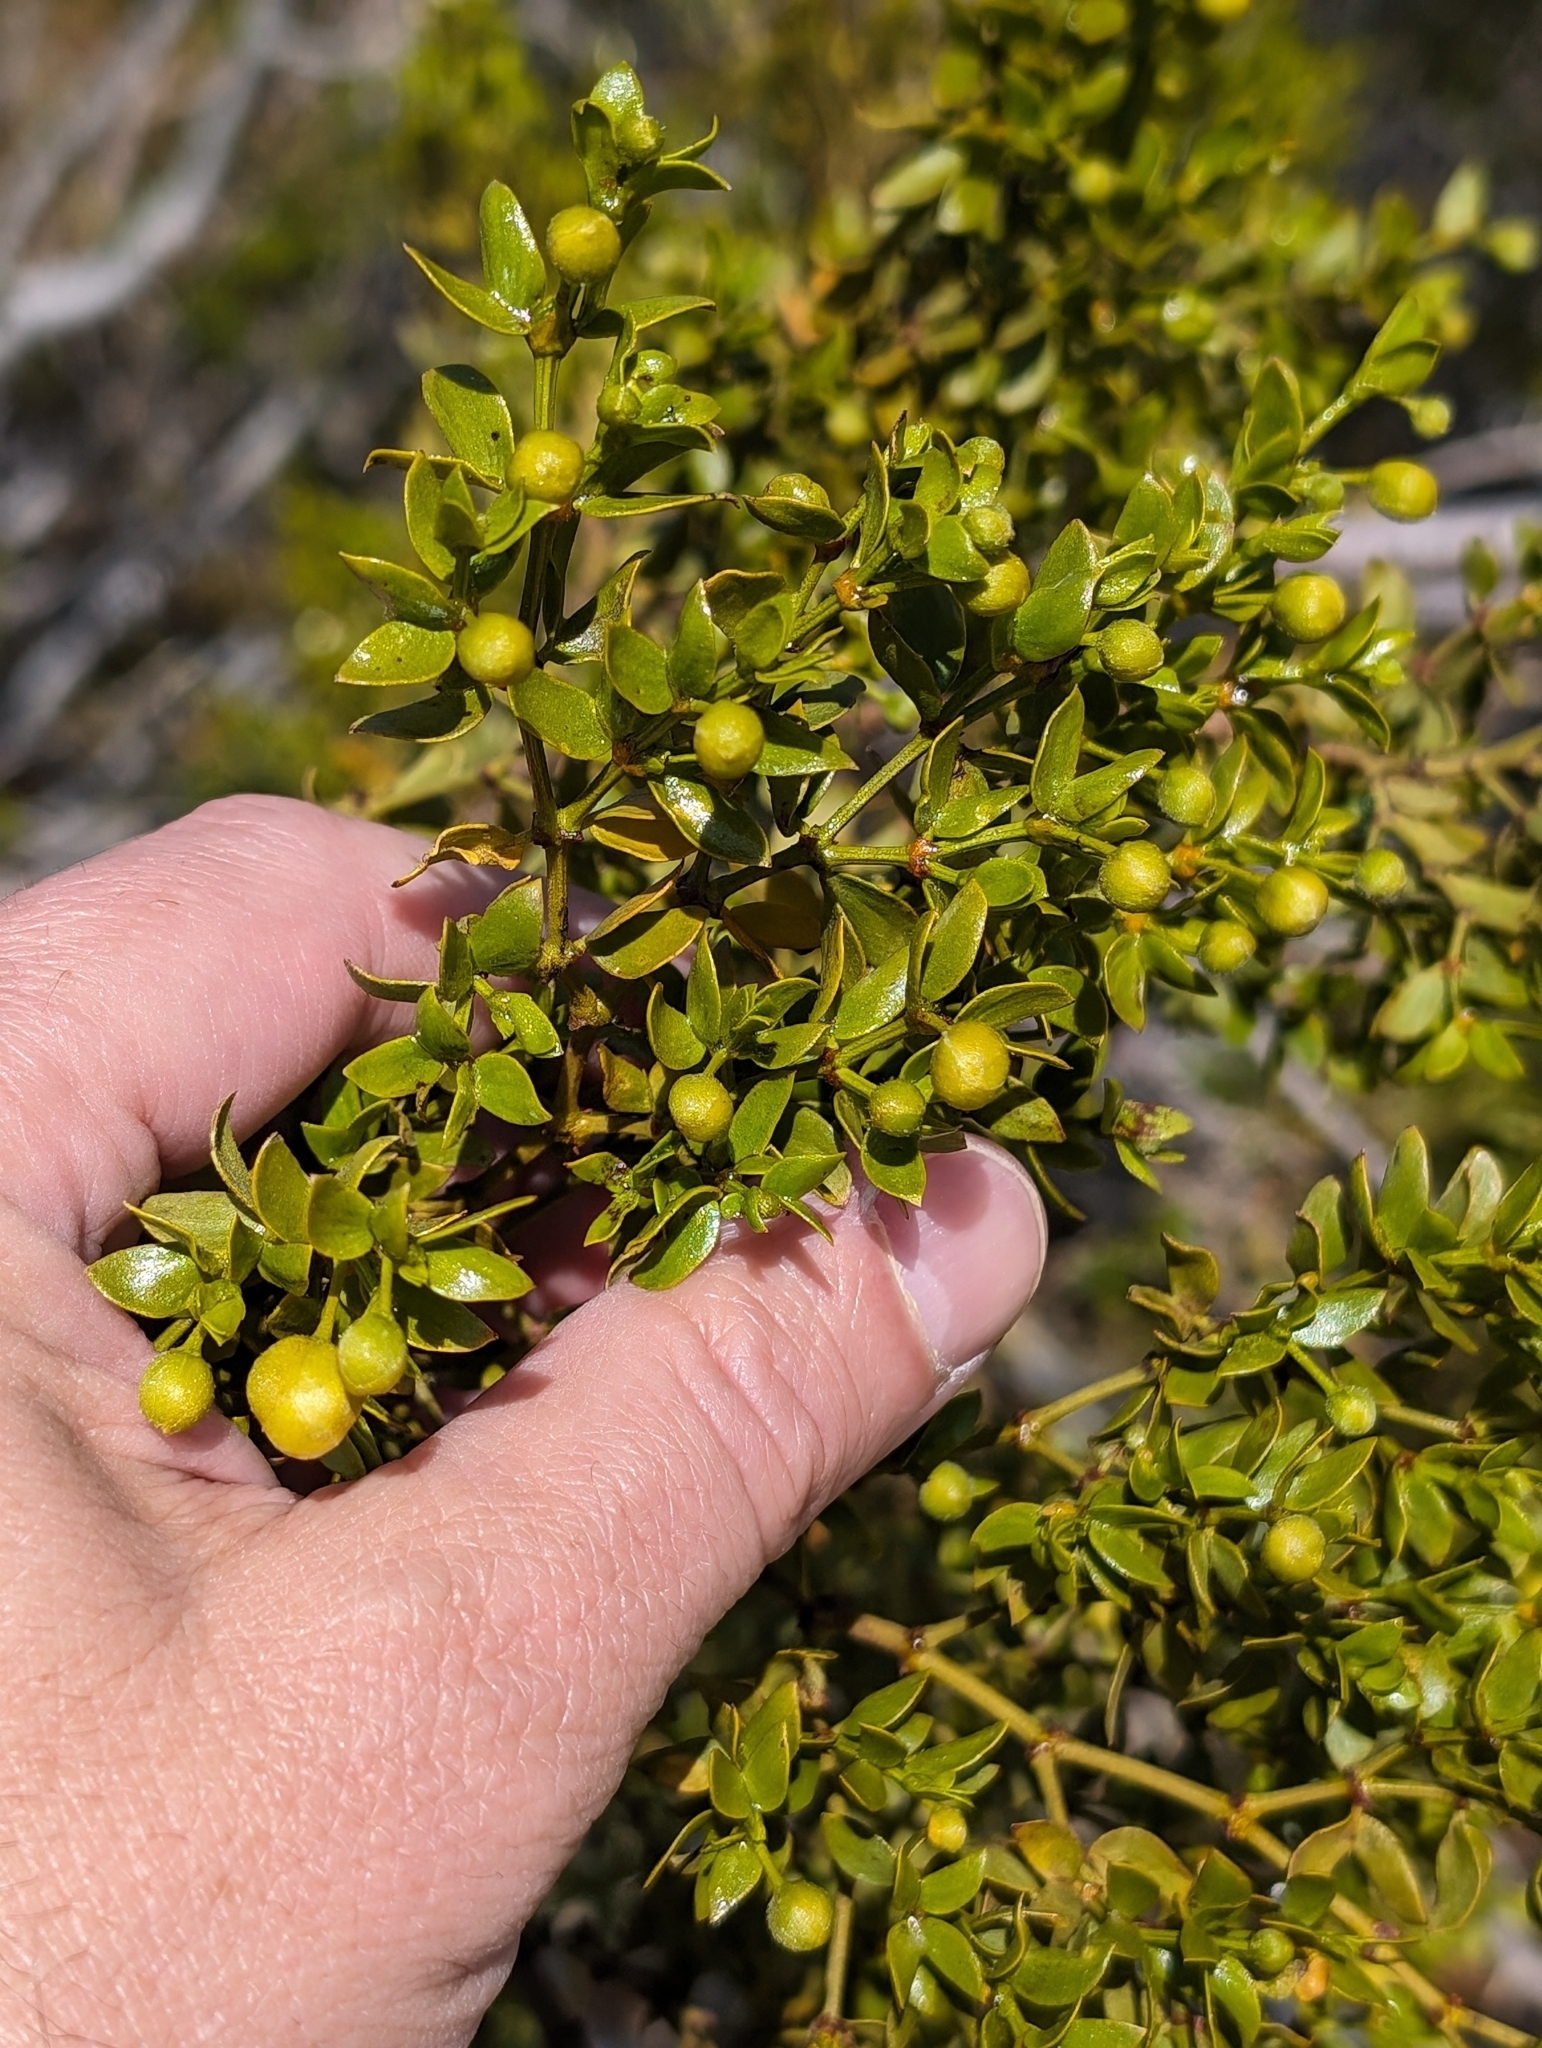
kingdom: Plantae
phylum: Tracheophyta
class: Magnoliopsida
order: Zygophyllales
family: Zygophyllaceae
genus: Larrea
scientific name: Larrea tridentata
